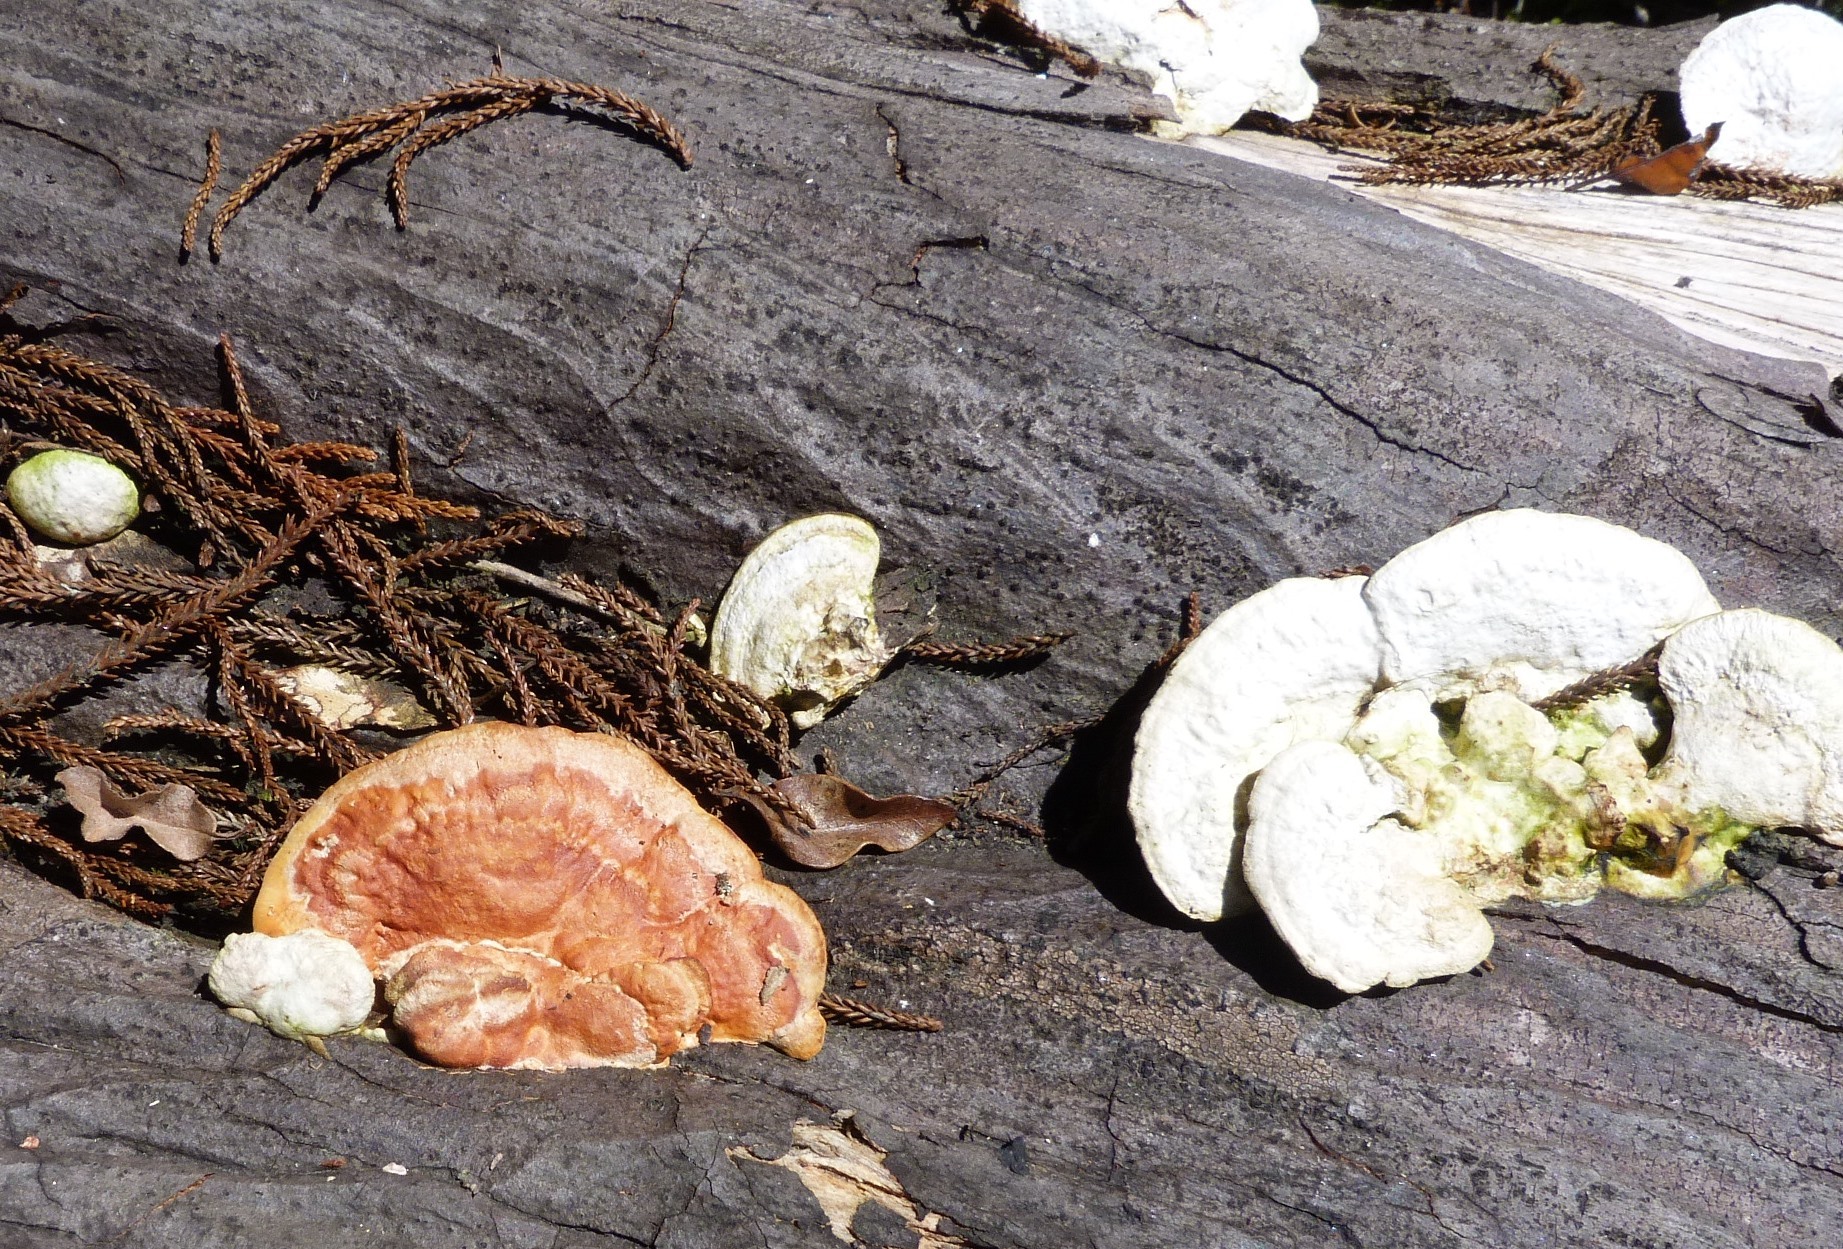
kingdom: Fungi
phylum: Basidiomycota
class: Agaricomycetes
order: Polyporales
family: Polyporaceae
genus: Trametes
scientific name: Trametes coccinea
